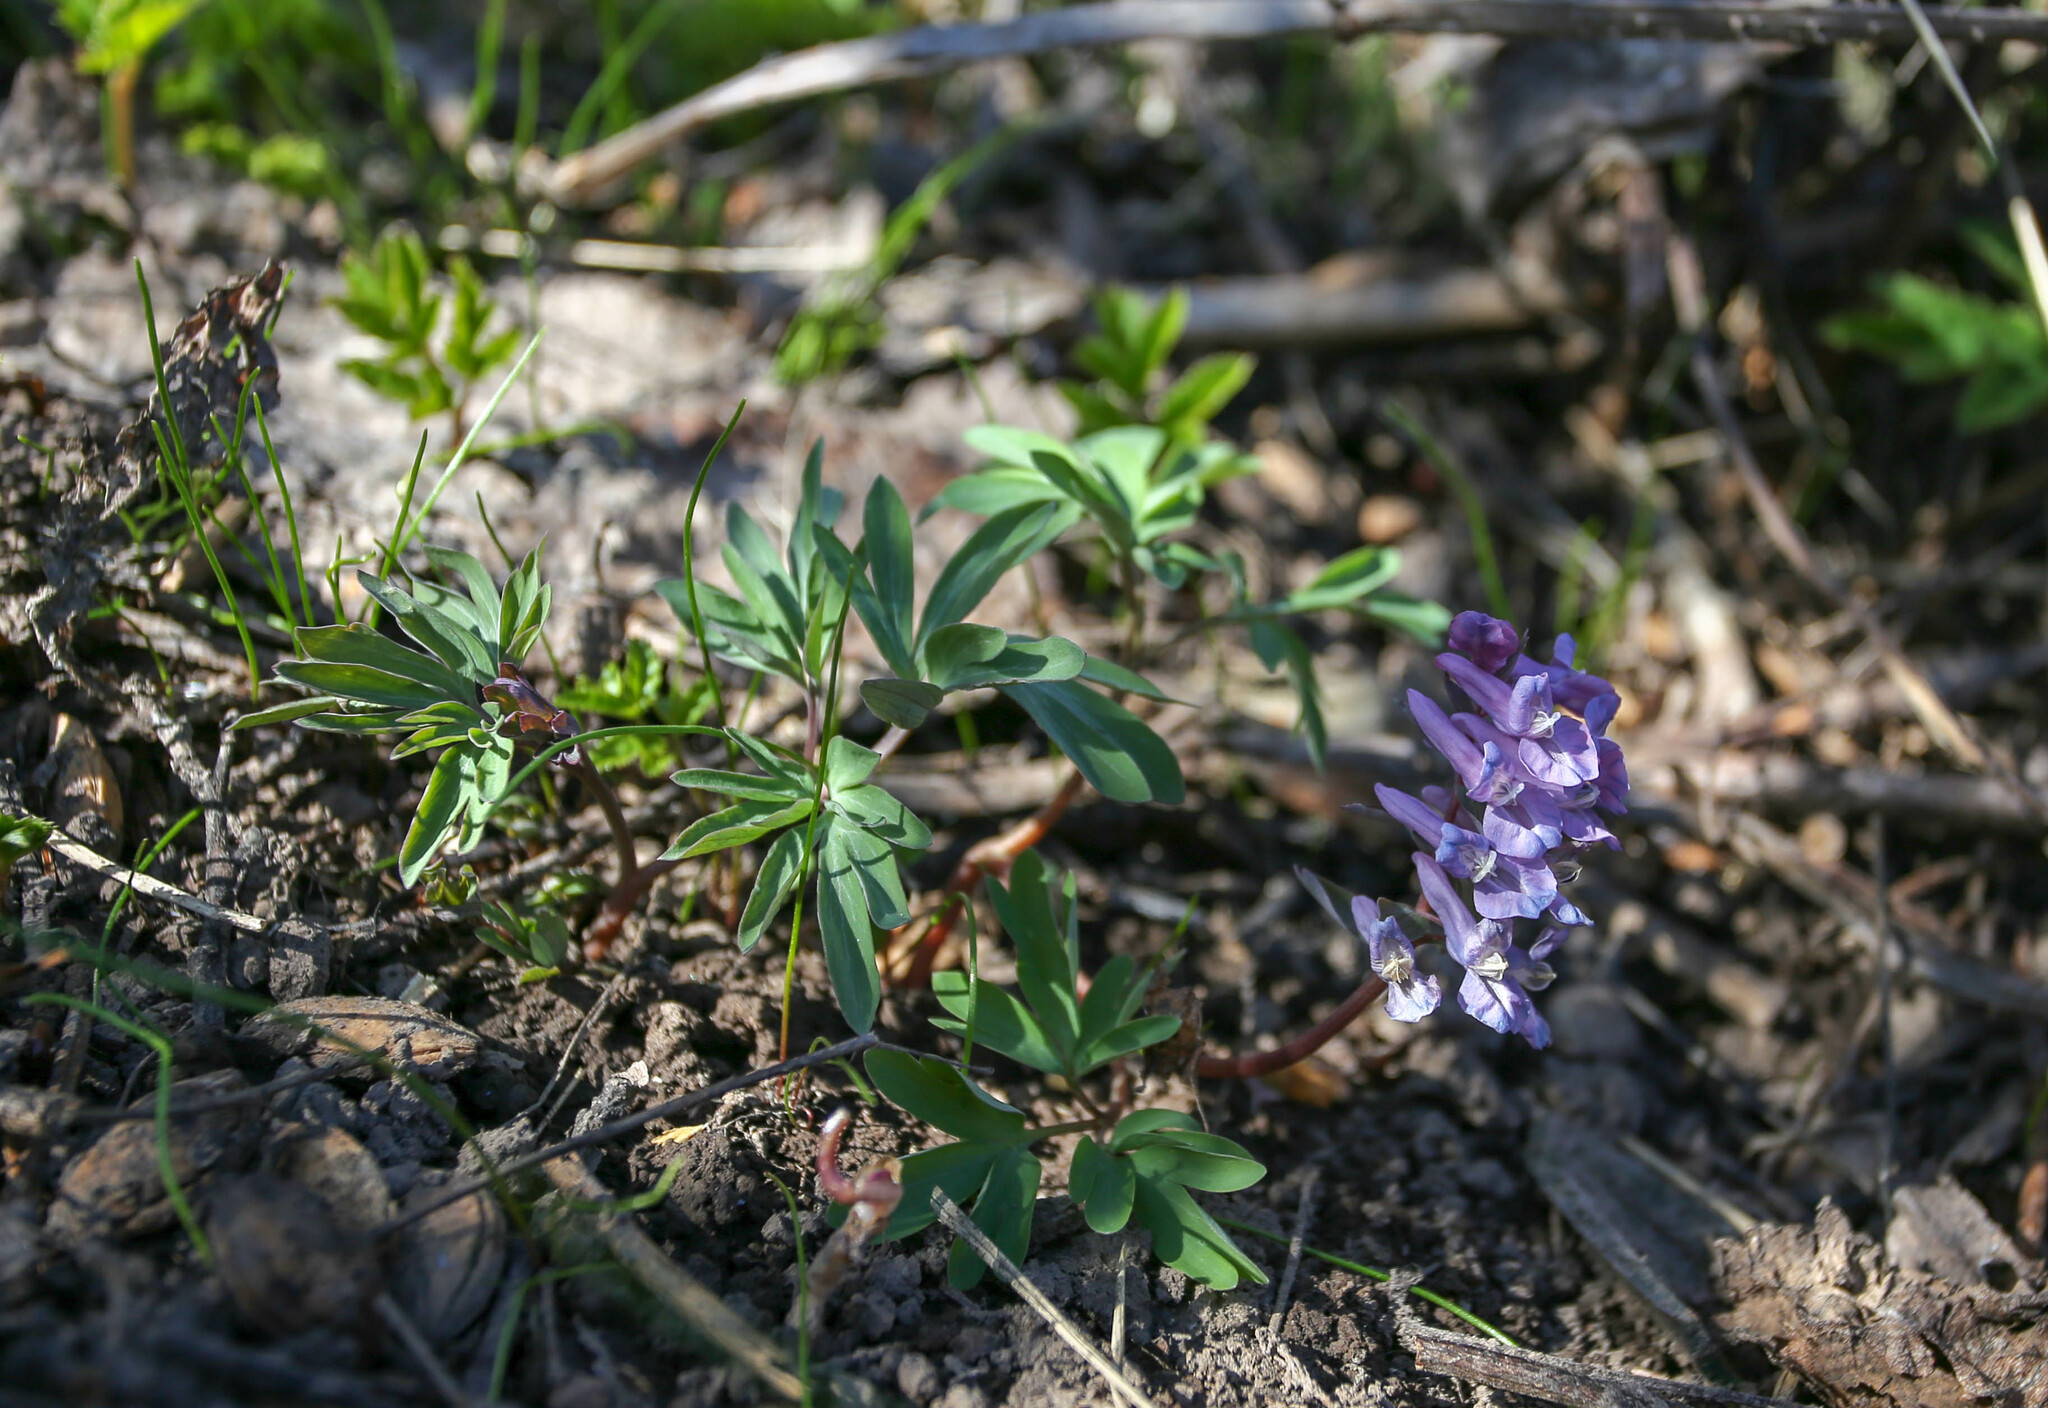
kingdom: Plantae
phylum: Tracheophyta
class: Magnoliopsida
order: Ranunculales
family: Papaveraceae
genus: Corydalis
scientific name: Corydalis solida
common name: Bird-in-a-bush
